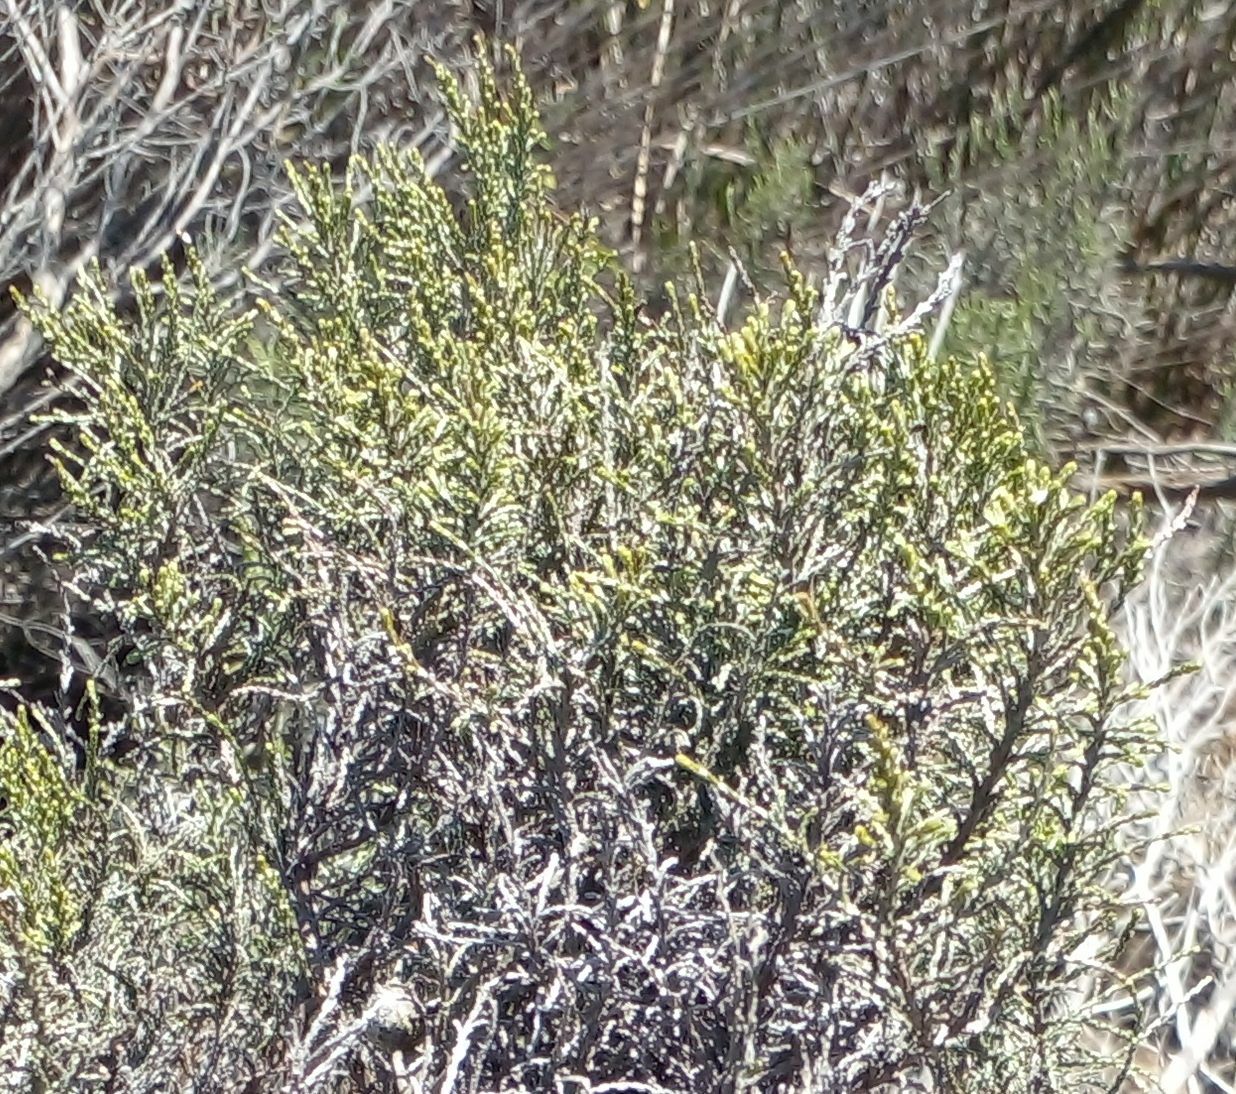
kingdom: Plantae
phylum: Tracheophyta
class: Magnoliopsida
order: Malvales
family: Thymelaeaceae
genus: Passerina
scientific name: Passerina corymbosa
